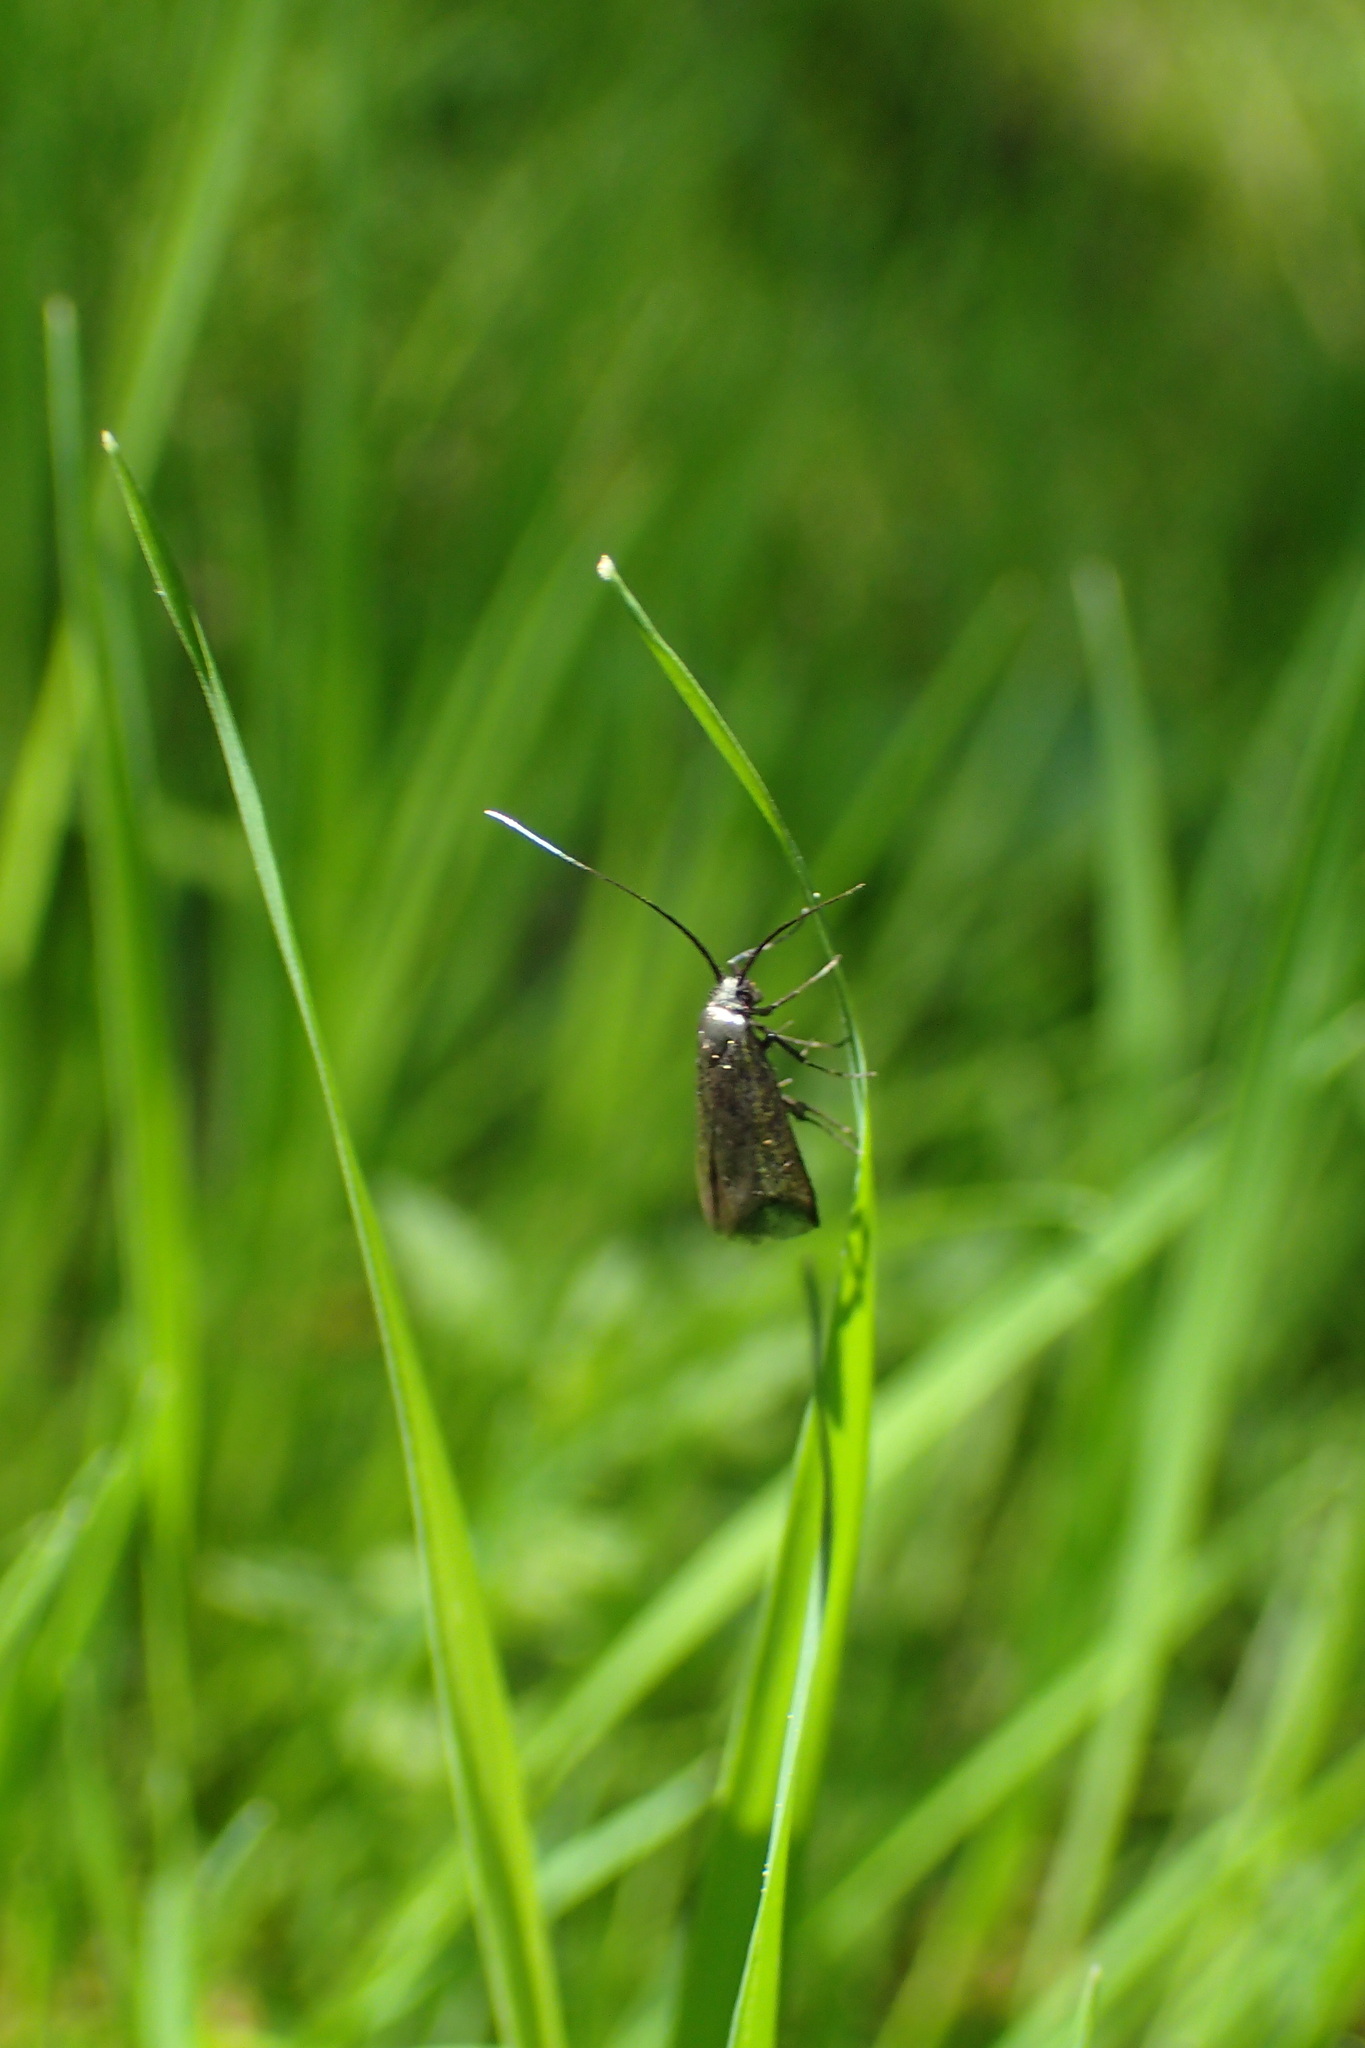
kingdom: Animalia
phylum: Arthropoda
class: Insecta
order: Lepidoptera
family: Adelidae
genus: Adela
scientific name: Adela viridella
